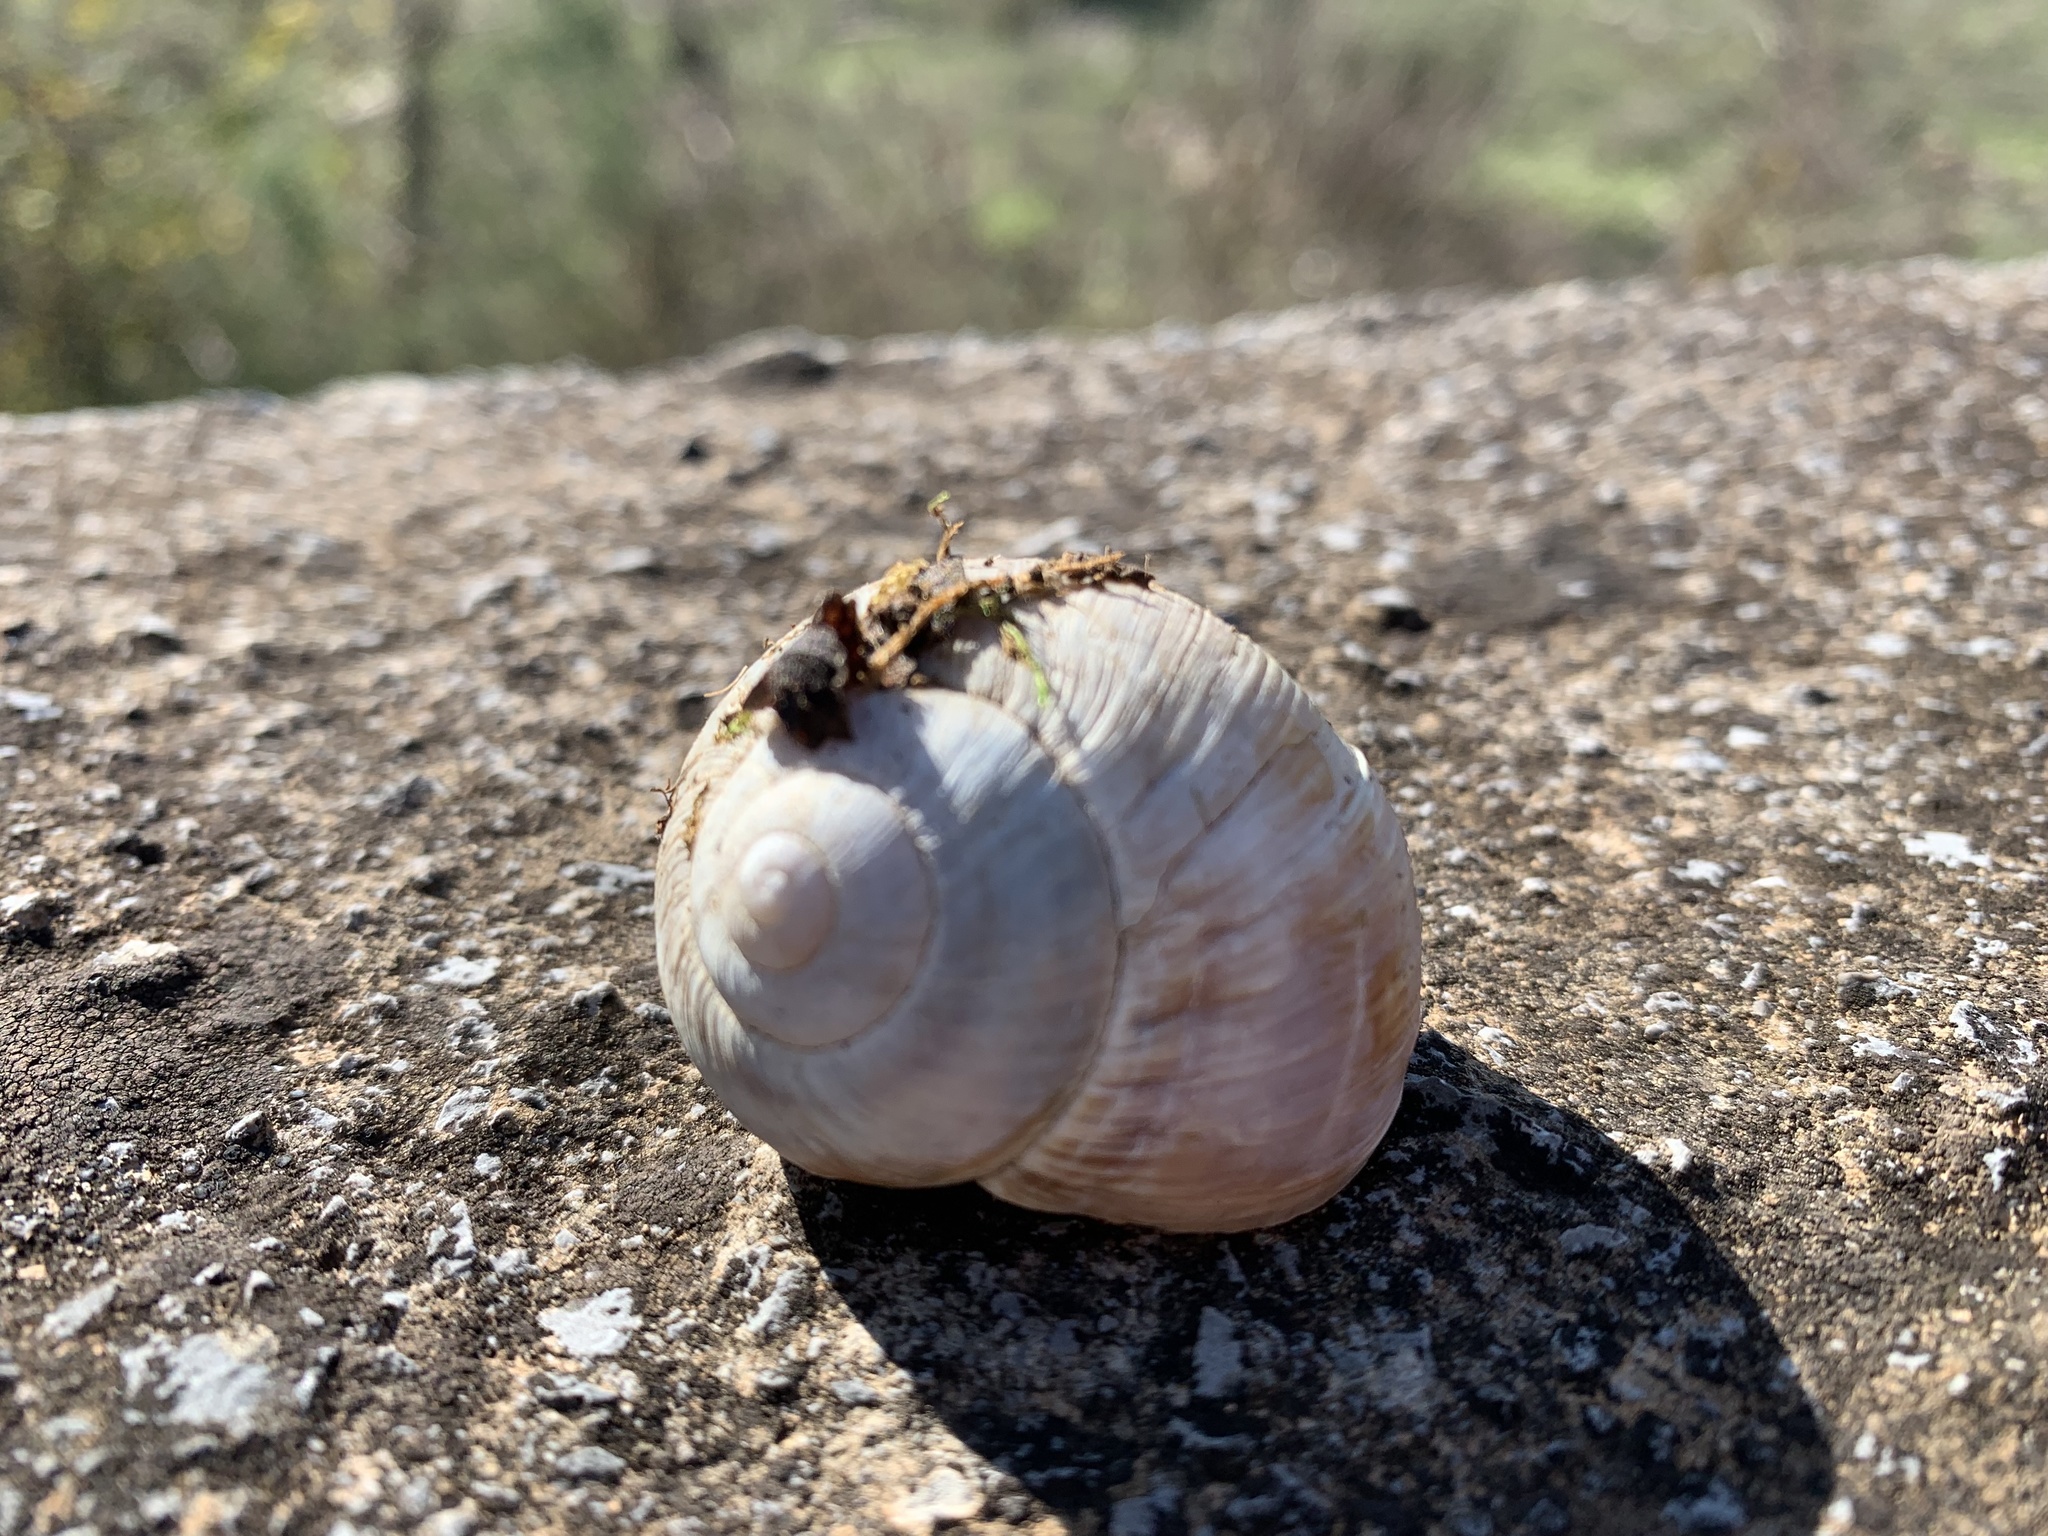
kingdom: Animalia
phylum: Mollusca
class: Gastropoda
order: Stylommatophora
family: Helicidae
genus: Helix
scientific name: Helix figulina
